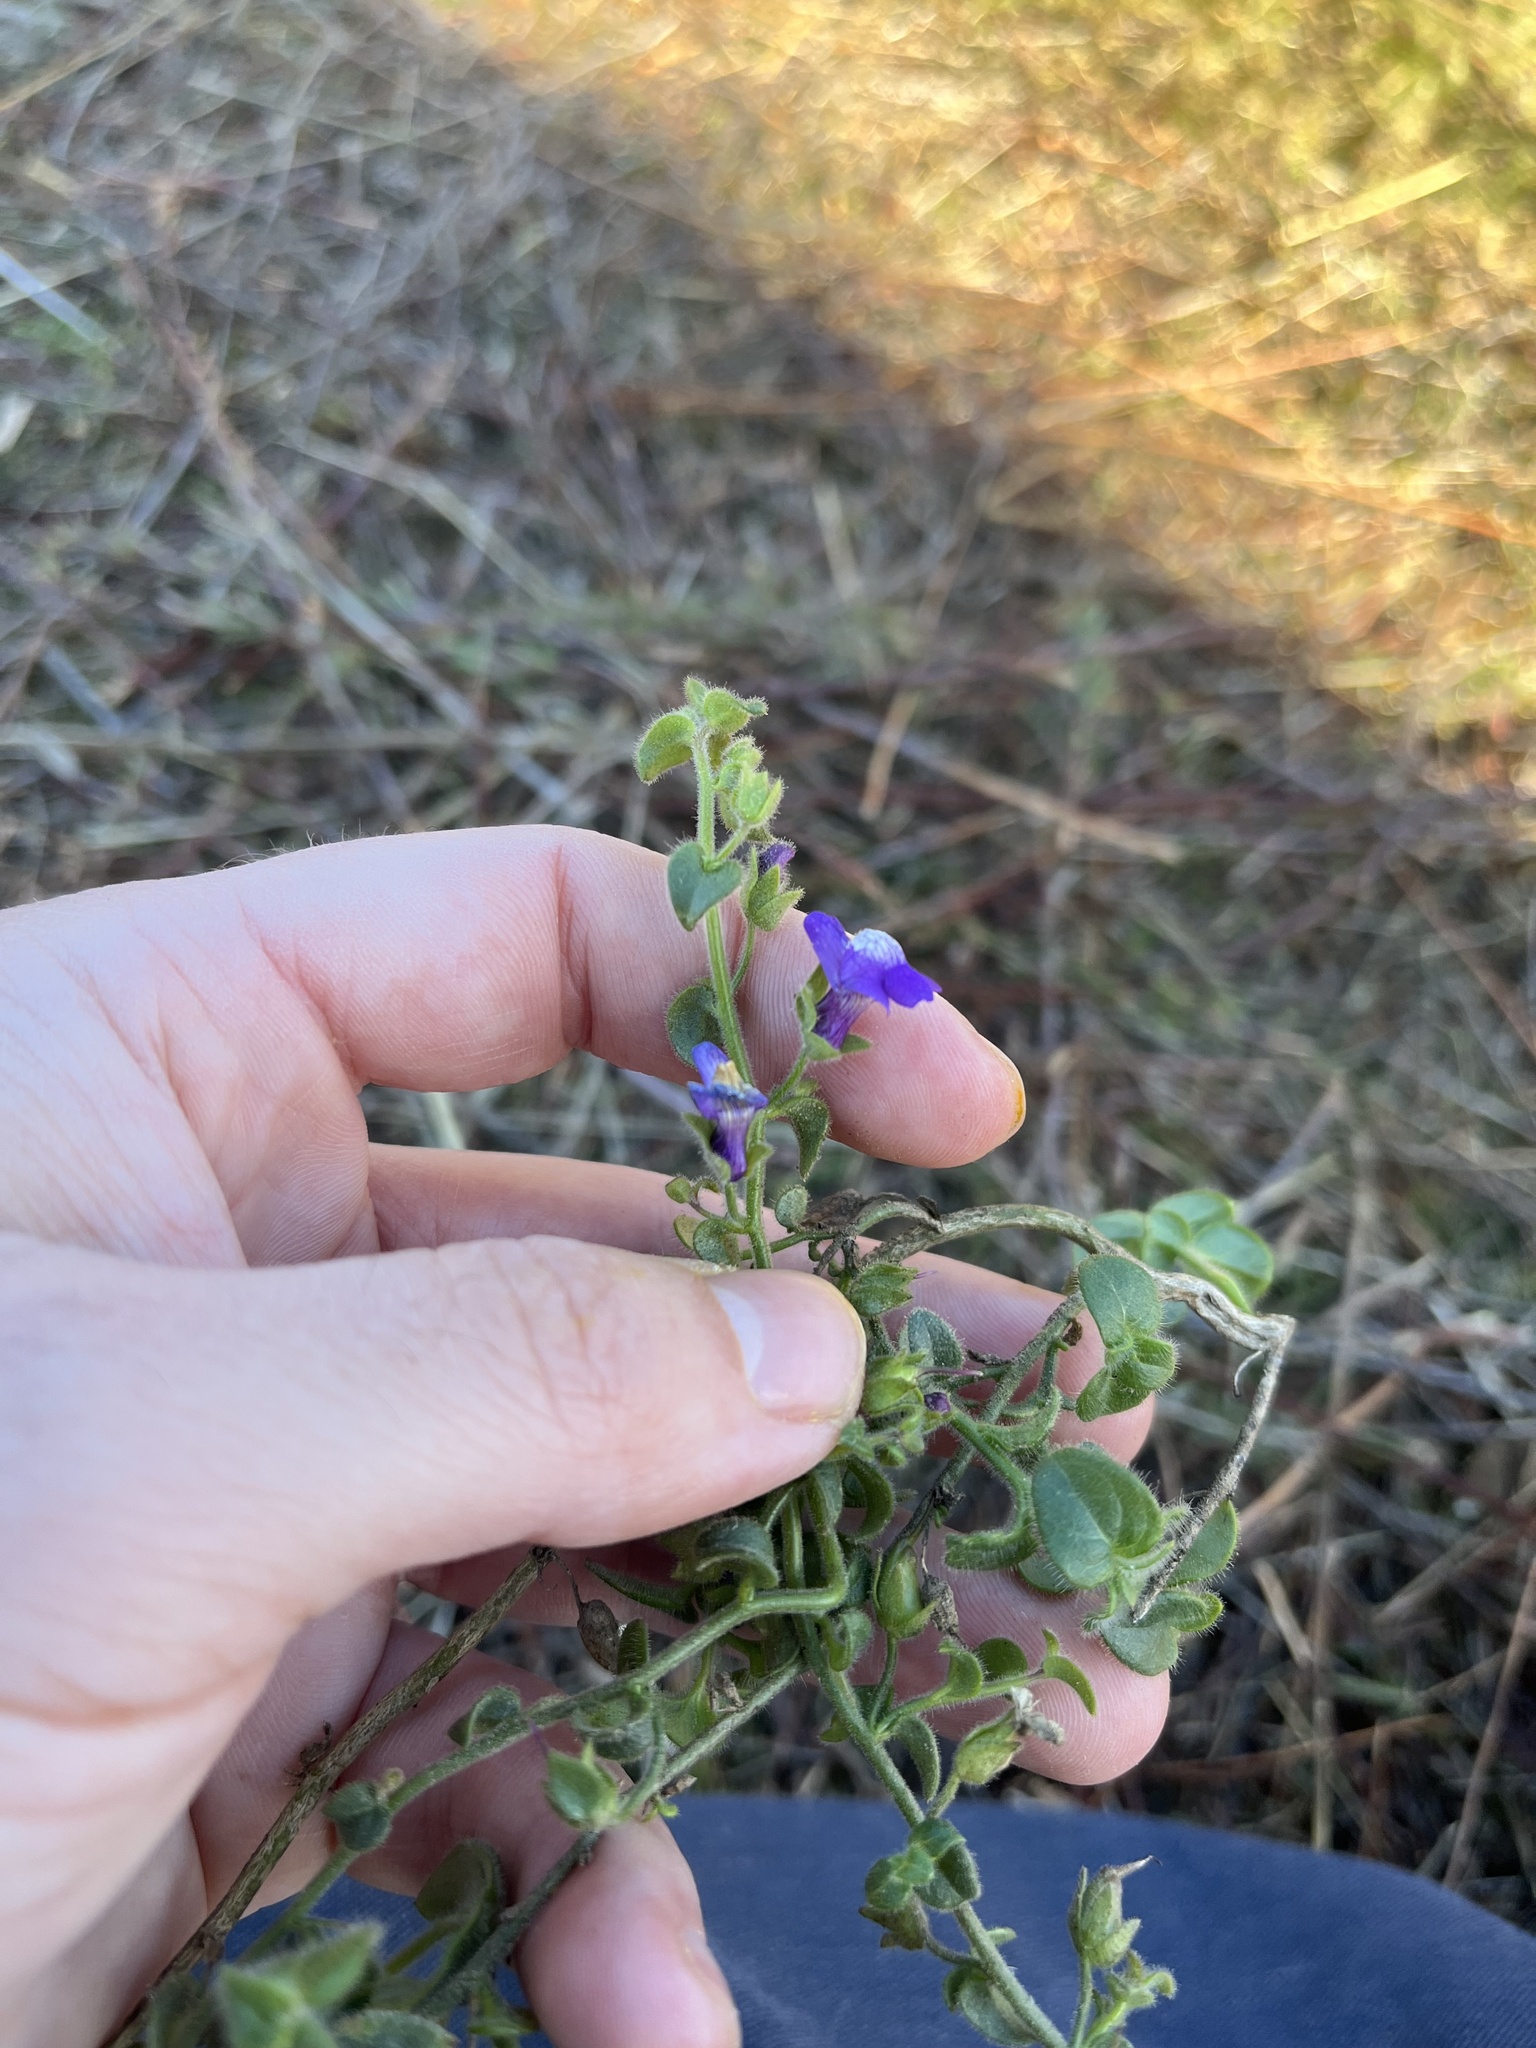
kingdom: Plantae
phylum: Tracheophyta
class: Magnoliopsida
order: Lamiales
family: Plantaginaceae
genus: Sairocarpus
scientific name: Sairocarpus nuttallianus
